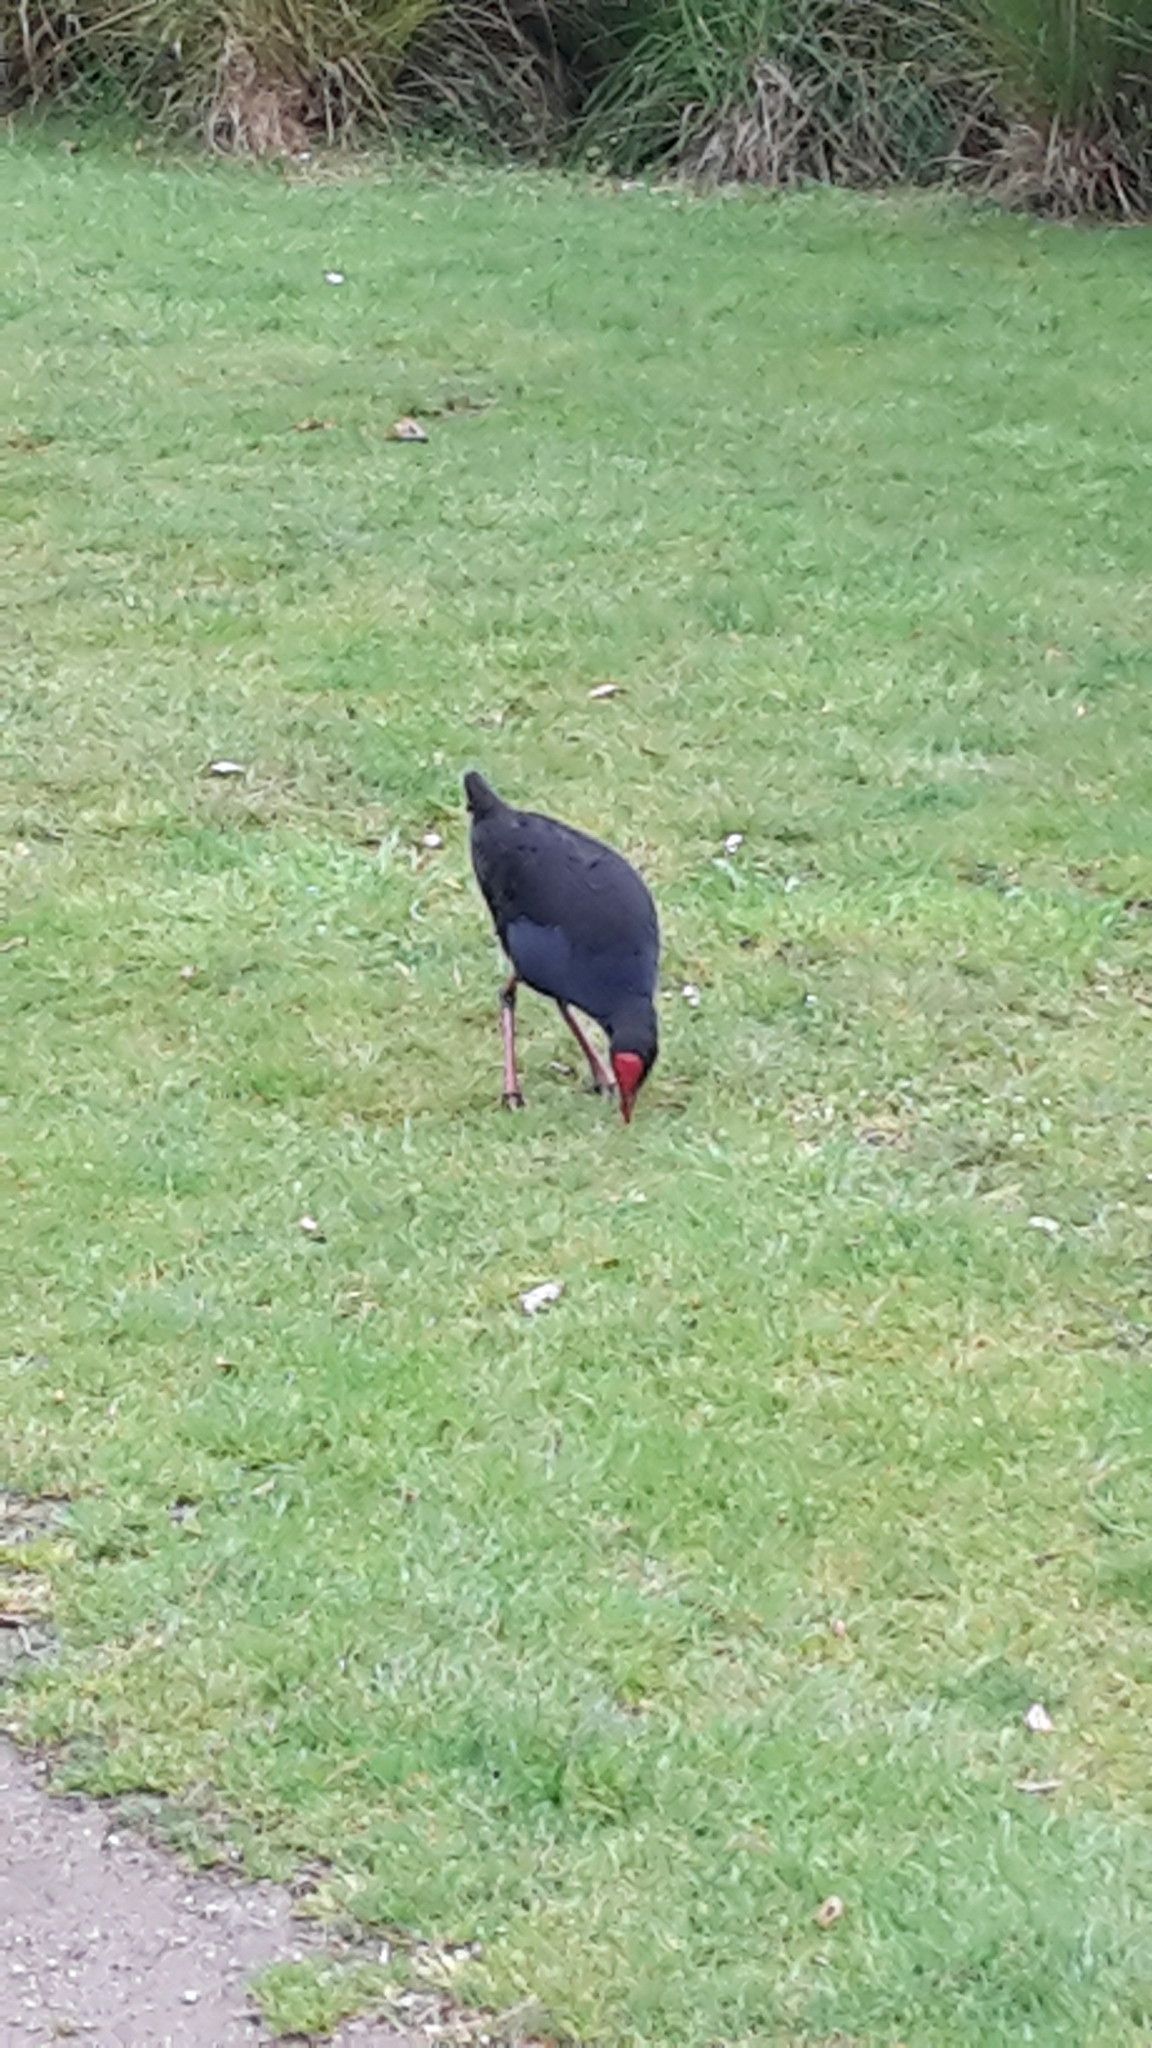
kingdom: Animalia
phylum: Chordata
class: Aves
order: Gruiformes
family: Rallidae
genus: Porphyrio
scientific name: Porphyrio melanotus
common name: Australasian swamphen
